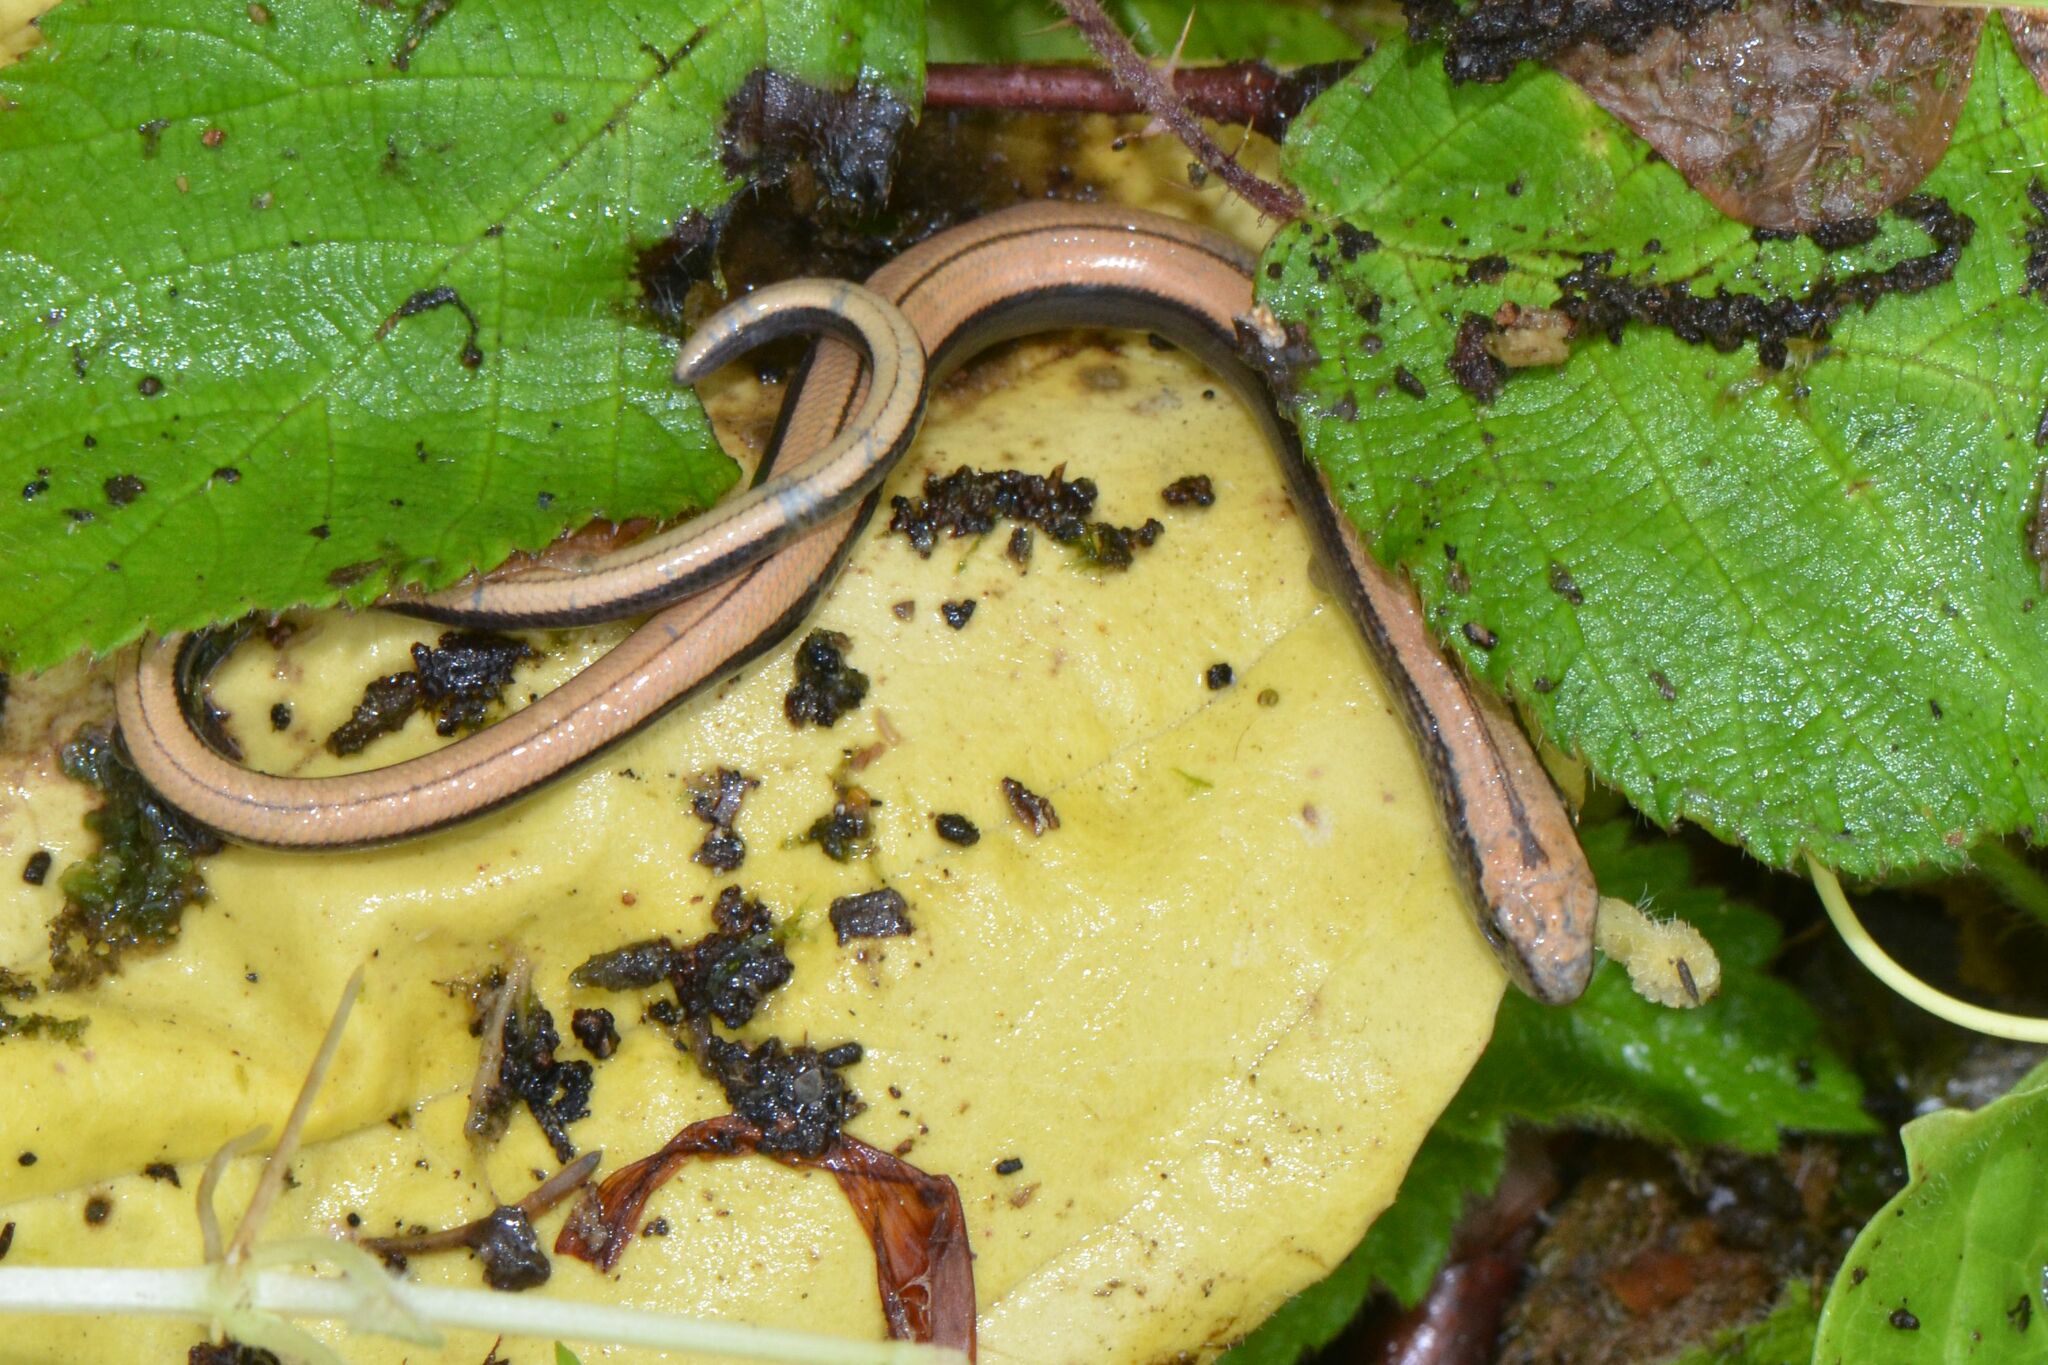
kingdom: Animalia
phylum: Chordata
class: Squamata
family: Anguidae
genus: Anguis
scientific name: Anguis fragilis
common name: Slow worm
